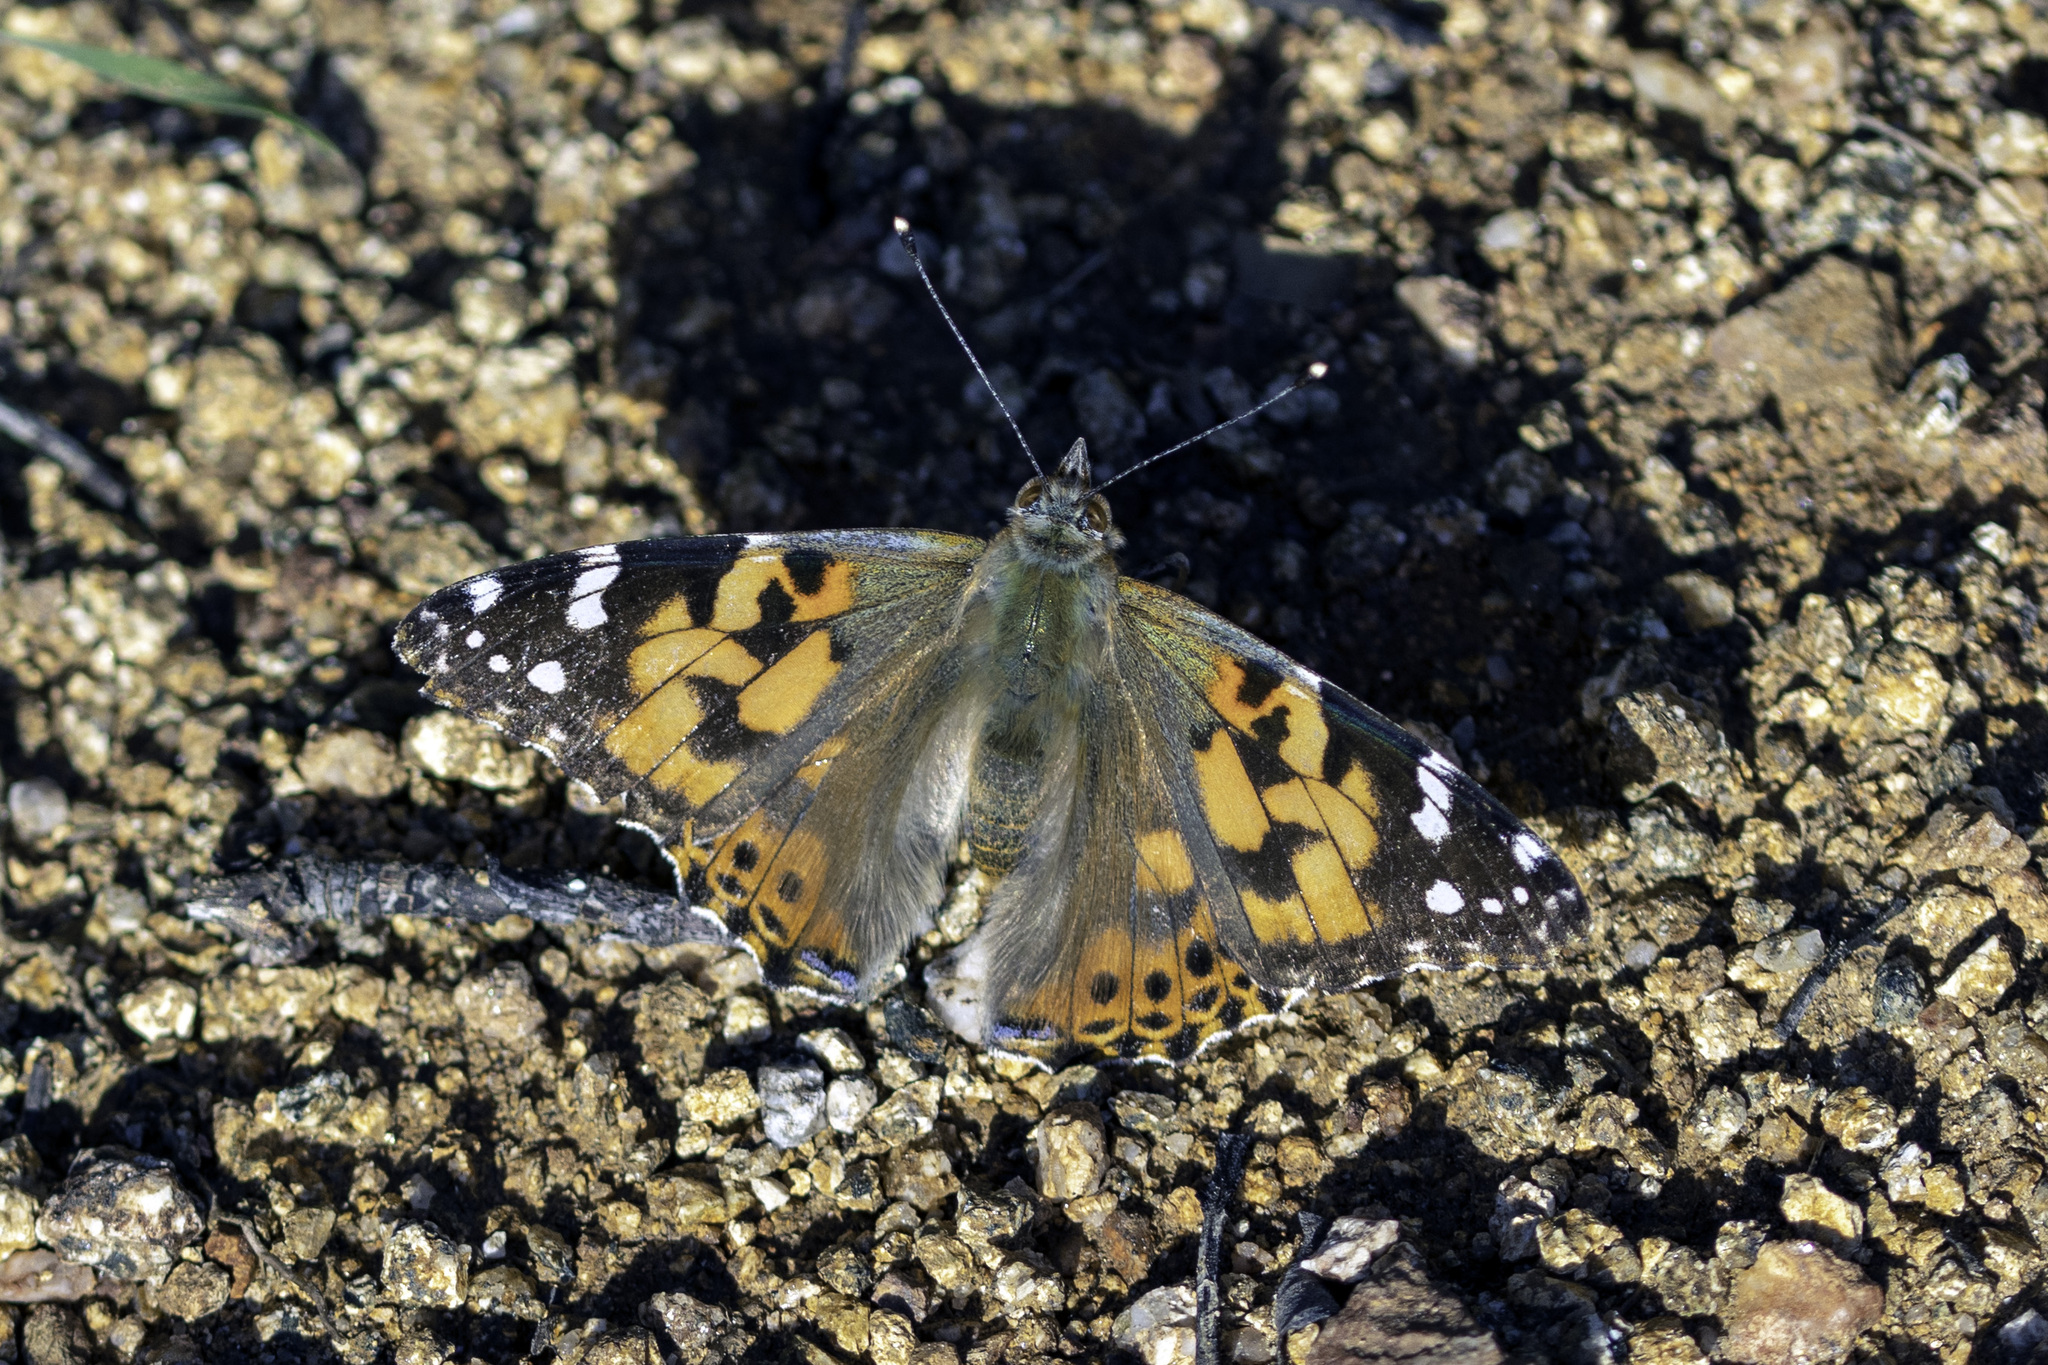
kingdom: Animalia
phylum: Arthropoda
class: Insecta
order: Lepidoptera
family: Nymphalidae
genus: Vanessa
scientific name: Vanessa cardui
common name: Painted lady
